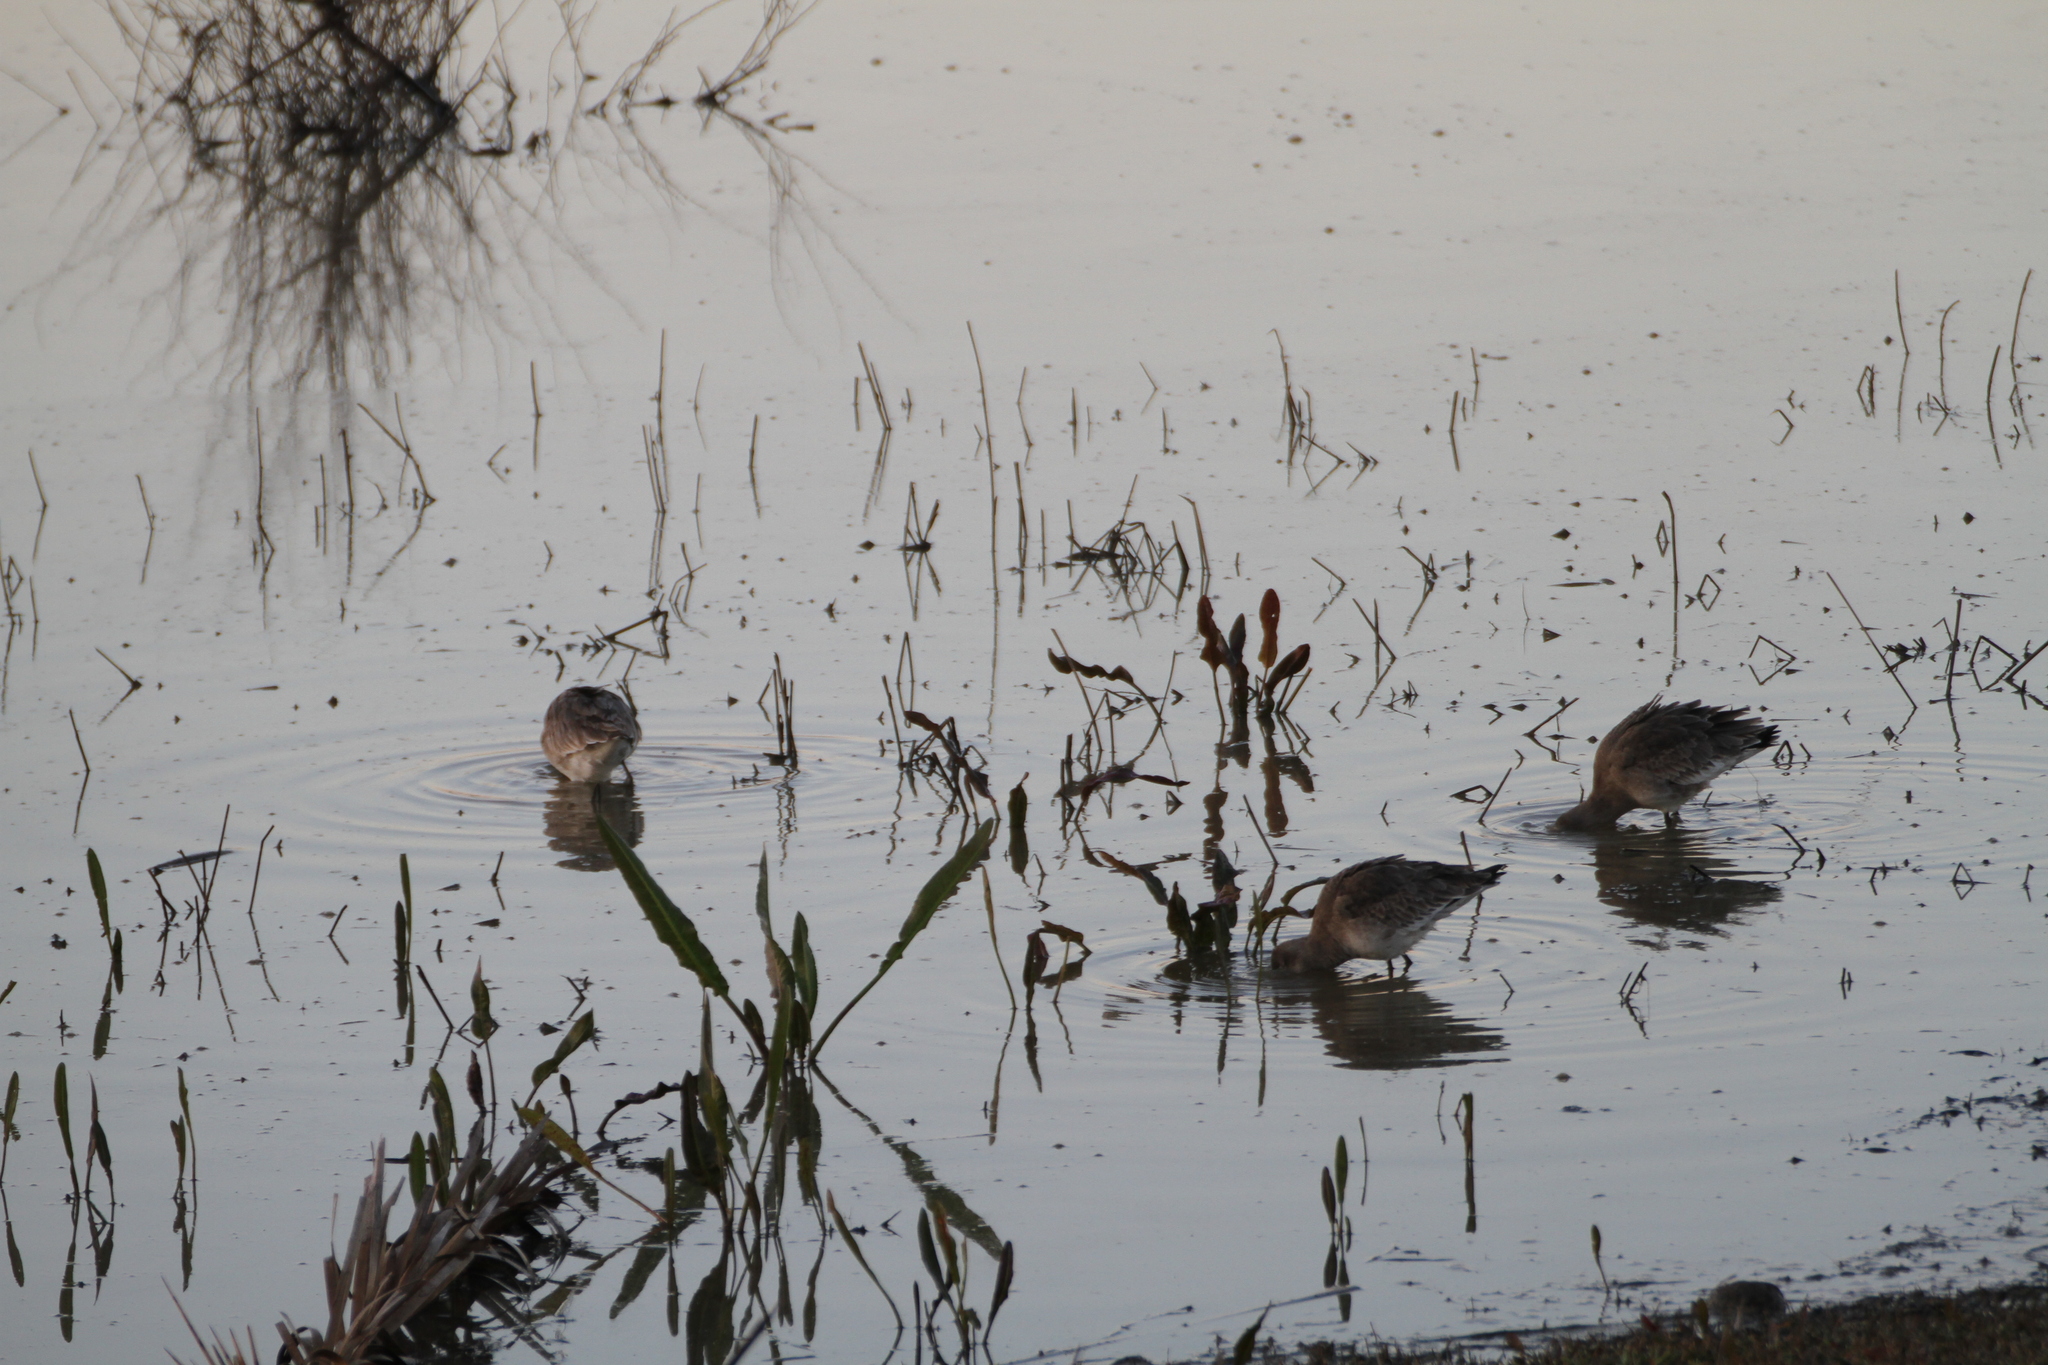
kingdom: Animalia
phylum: Chordata
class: Aves
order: Charadriiformes
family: Scolopacidae
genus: Limosa
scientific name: Limosa limosa
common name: Black-tailed godwit
